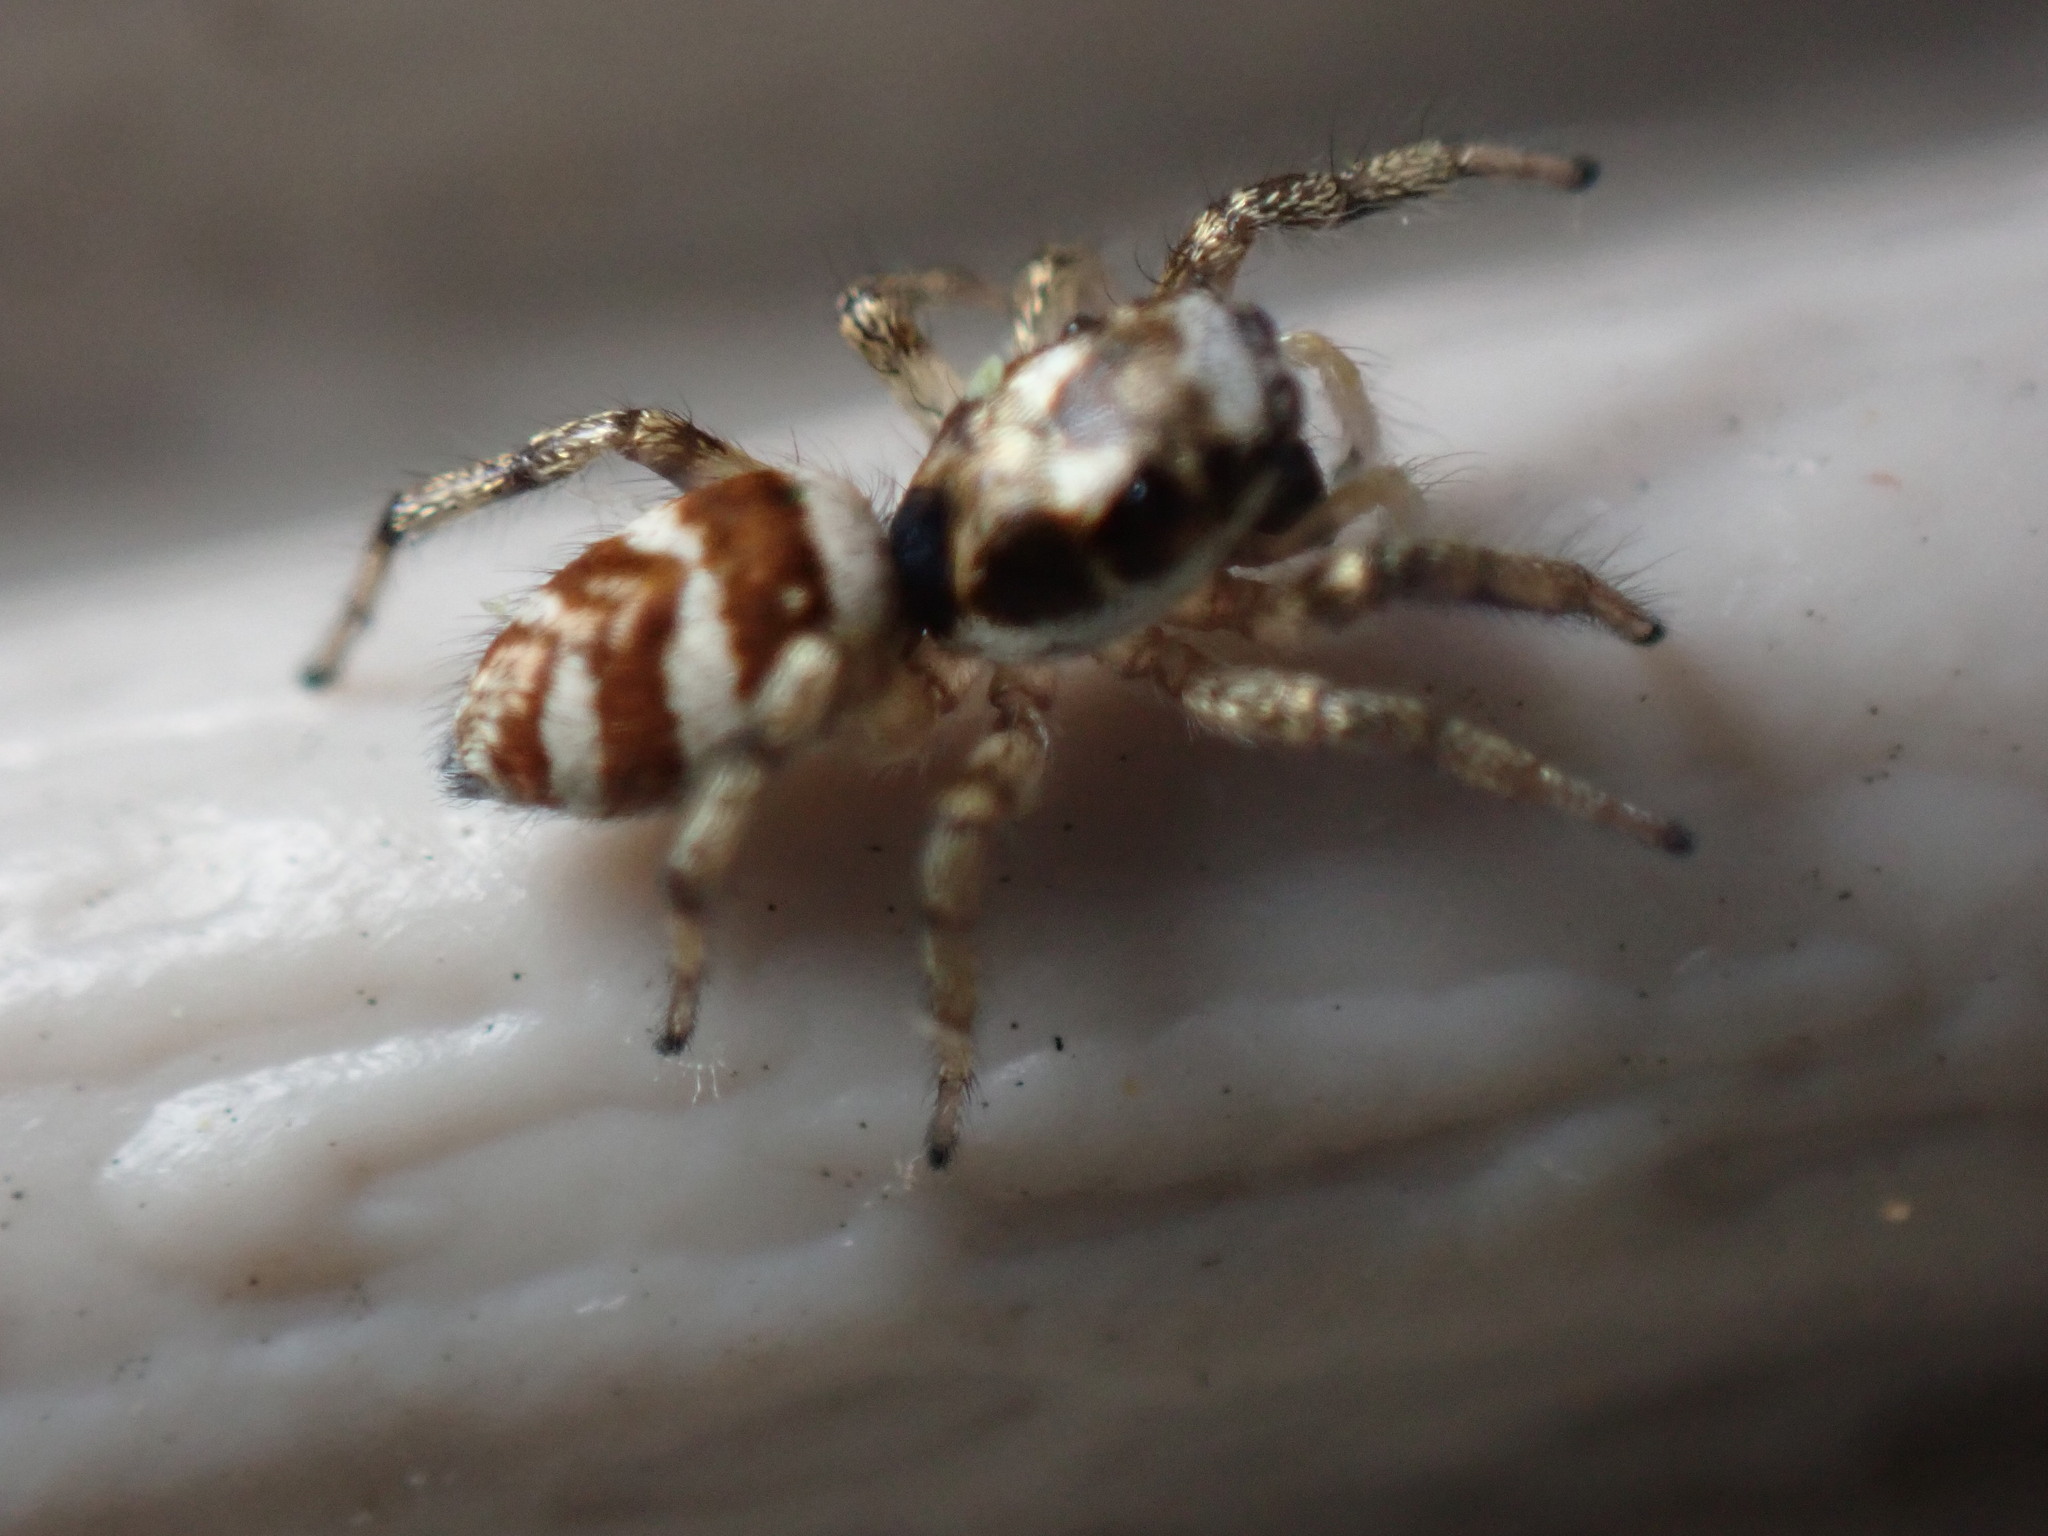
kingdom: Animalia
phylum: Arthropoda
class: Arachnida
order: Araneae
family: Salticidae
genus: Salticus
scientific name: Salticus scenicus
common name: Zebra jumper
